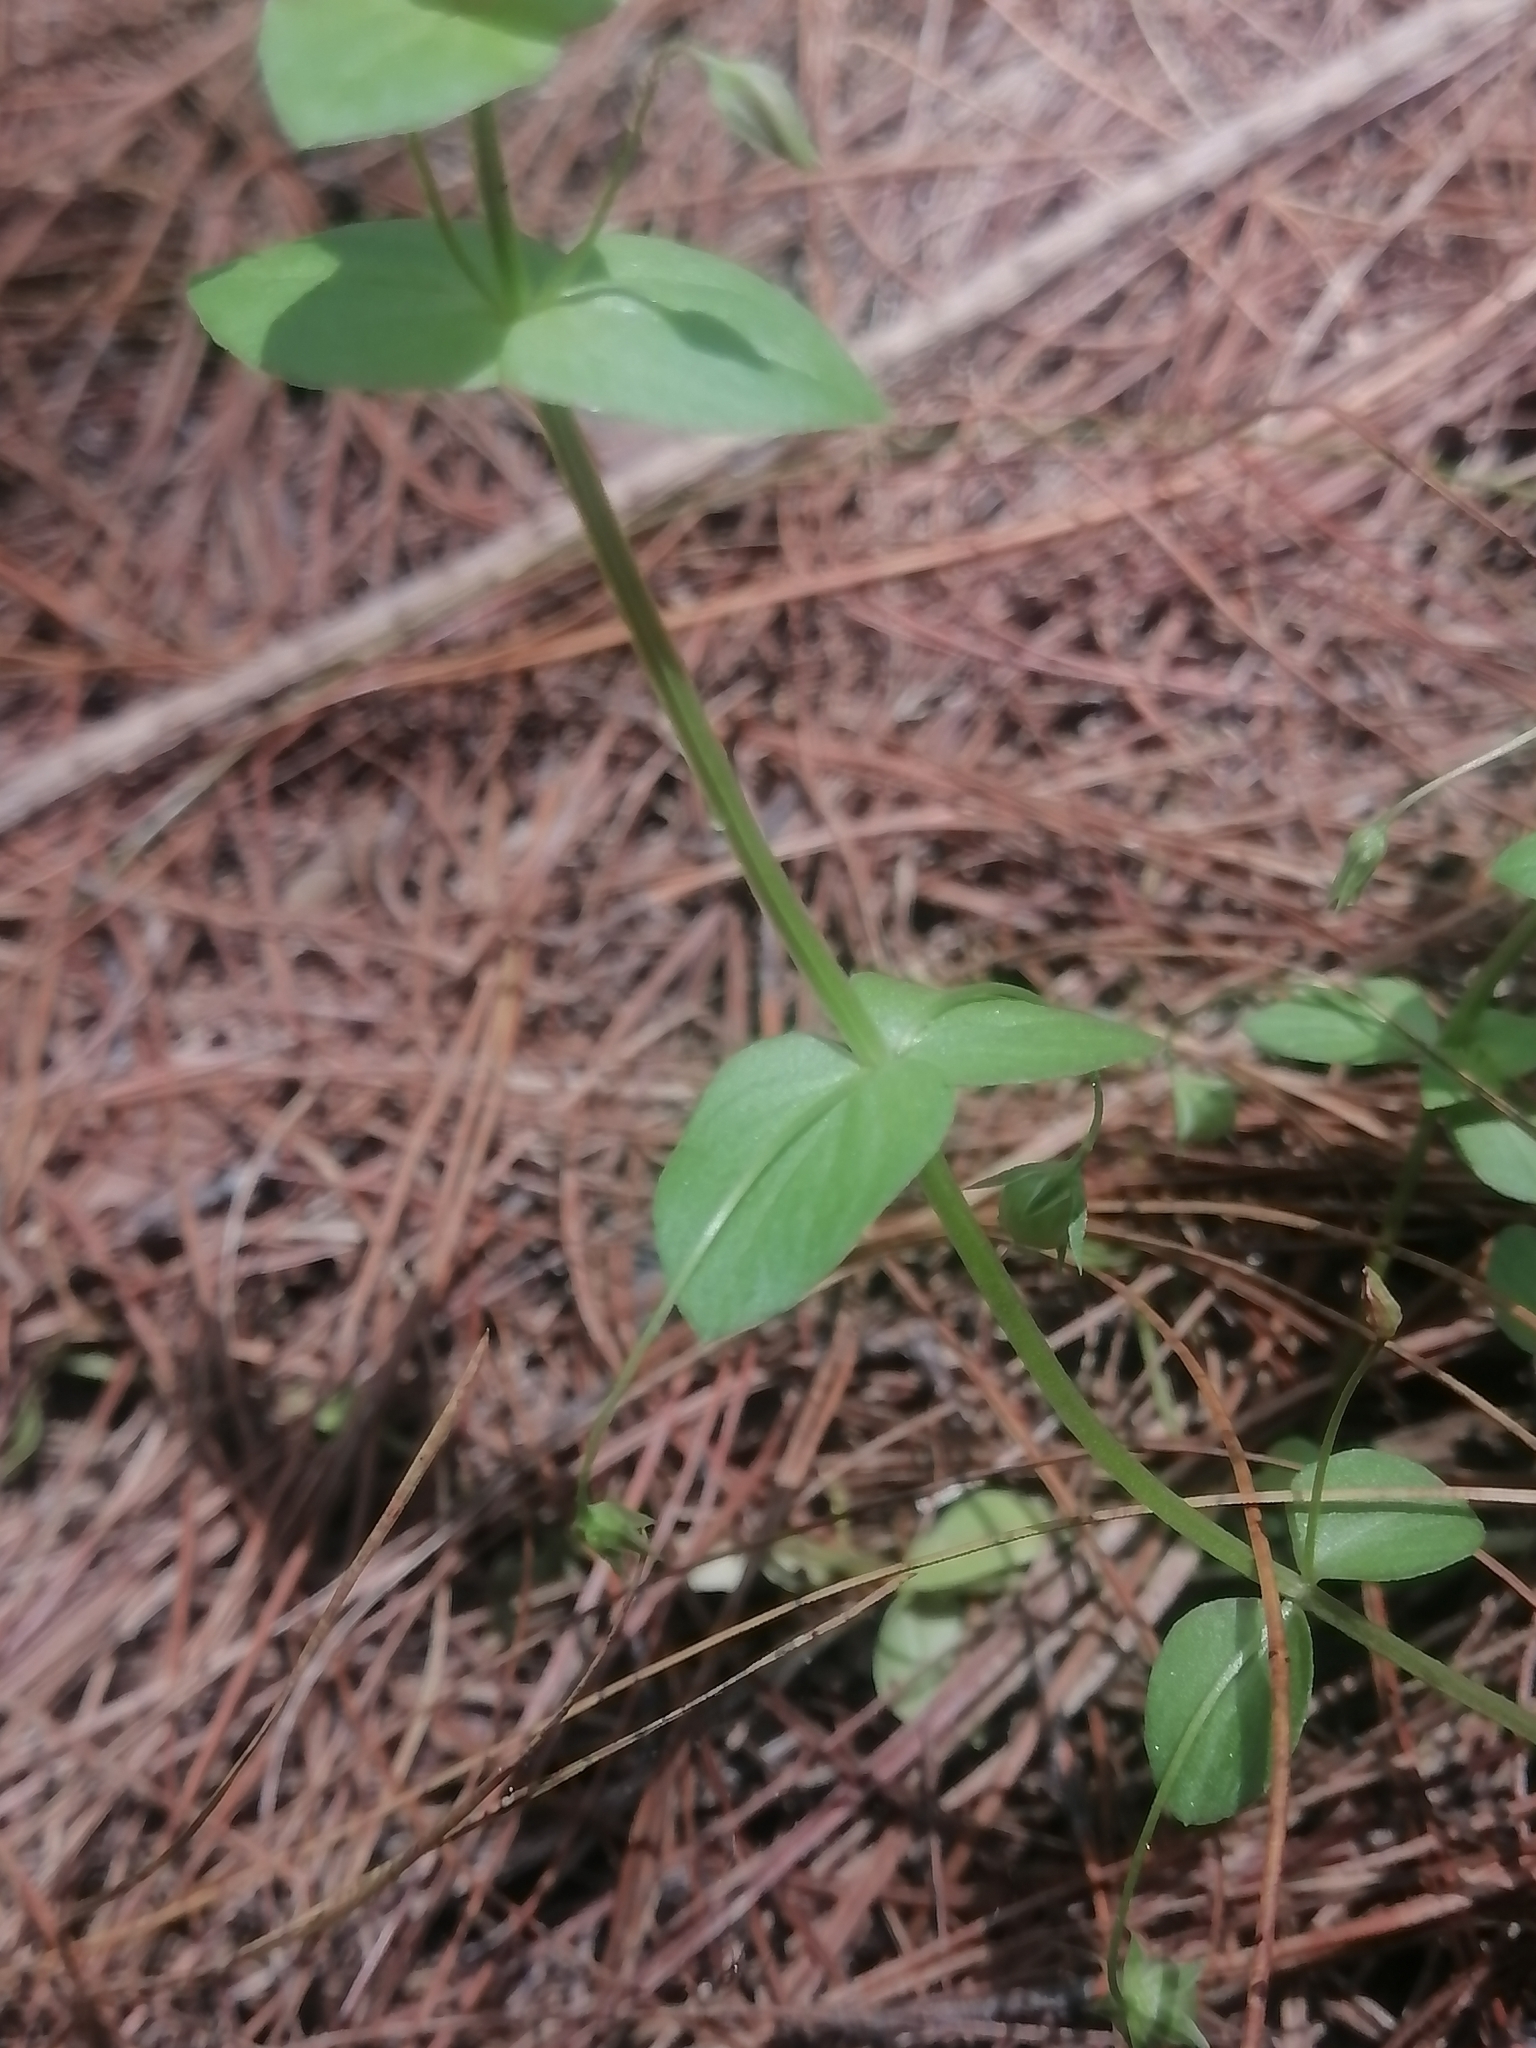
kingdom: Plantae
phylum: Tracheophyta
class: Magnoliopsida
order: Ericales
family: Primulaceae
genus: Lysimachia
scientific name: Lysimachia arvensis
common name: Scarlet pimpernel
